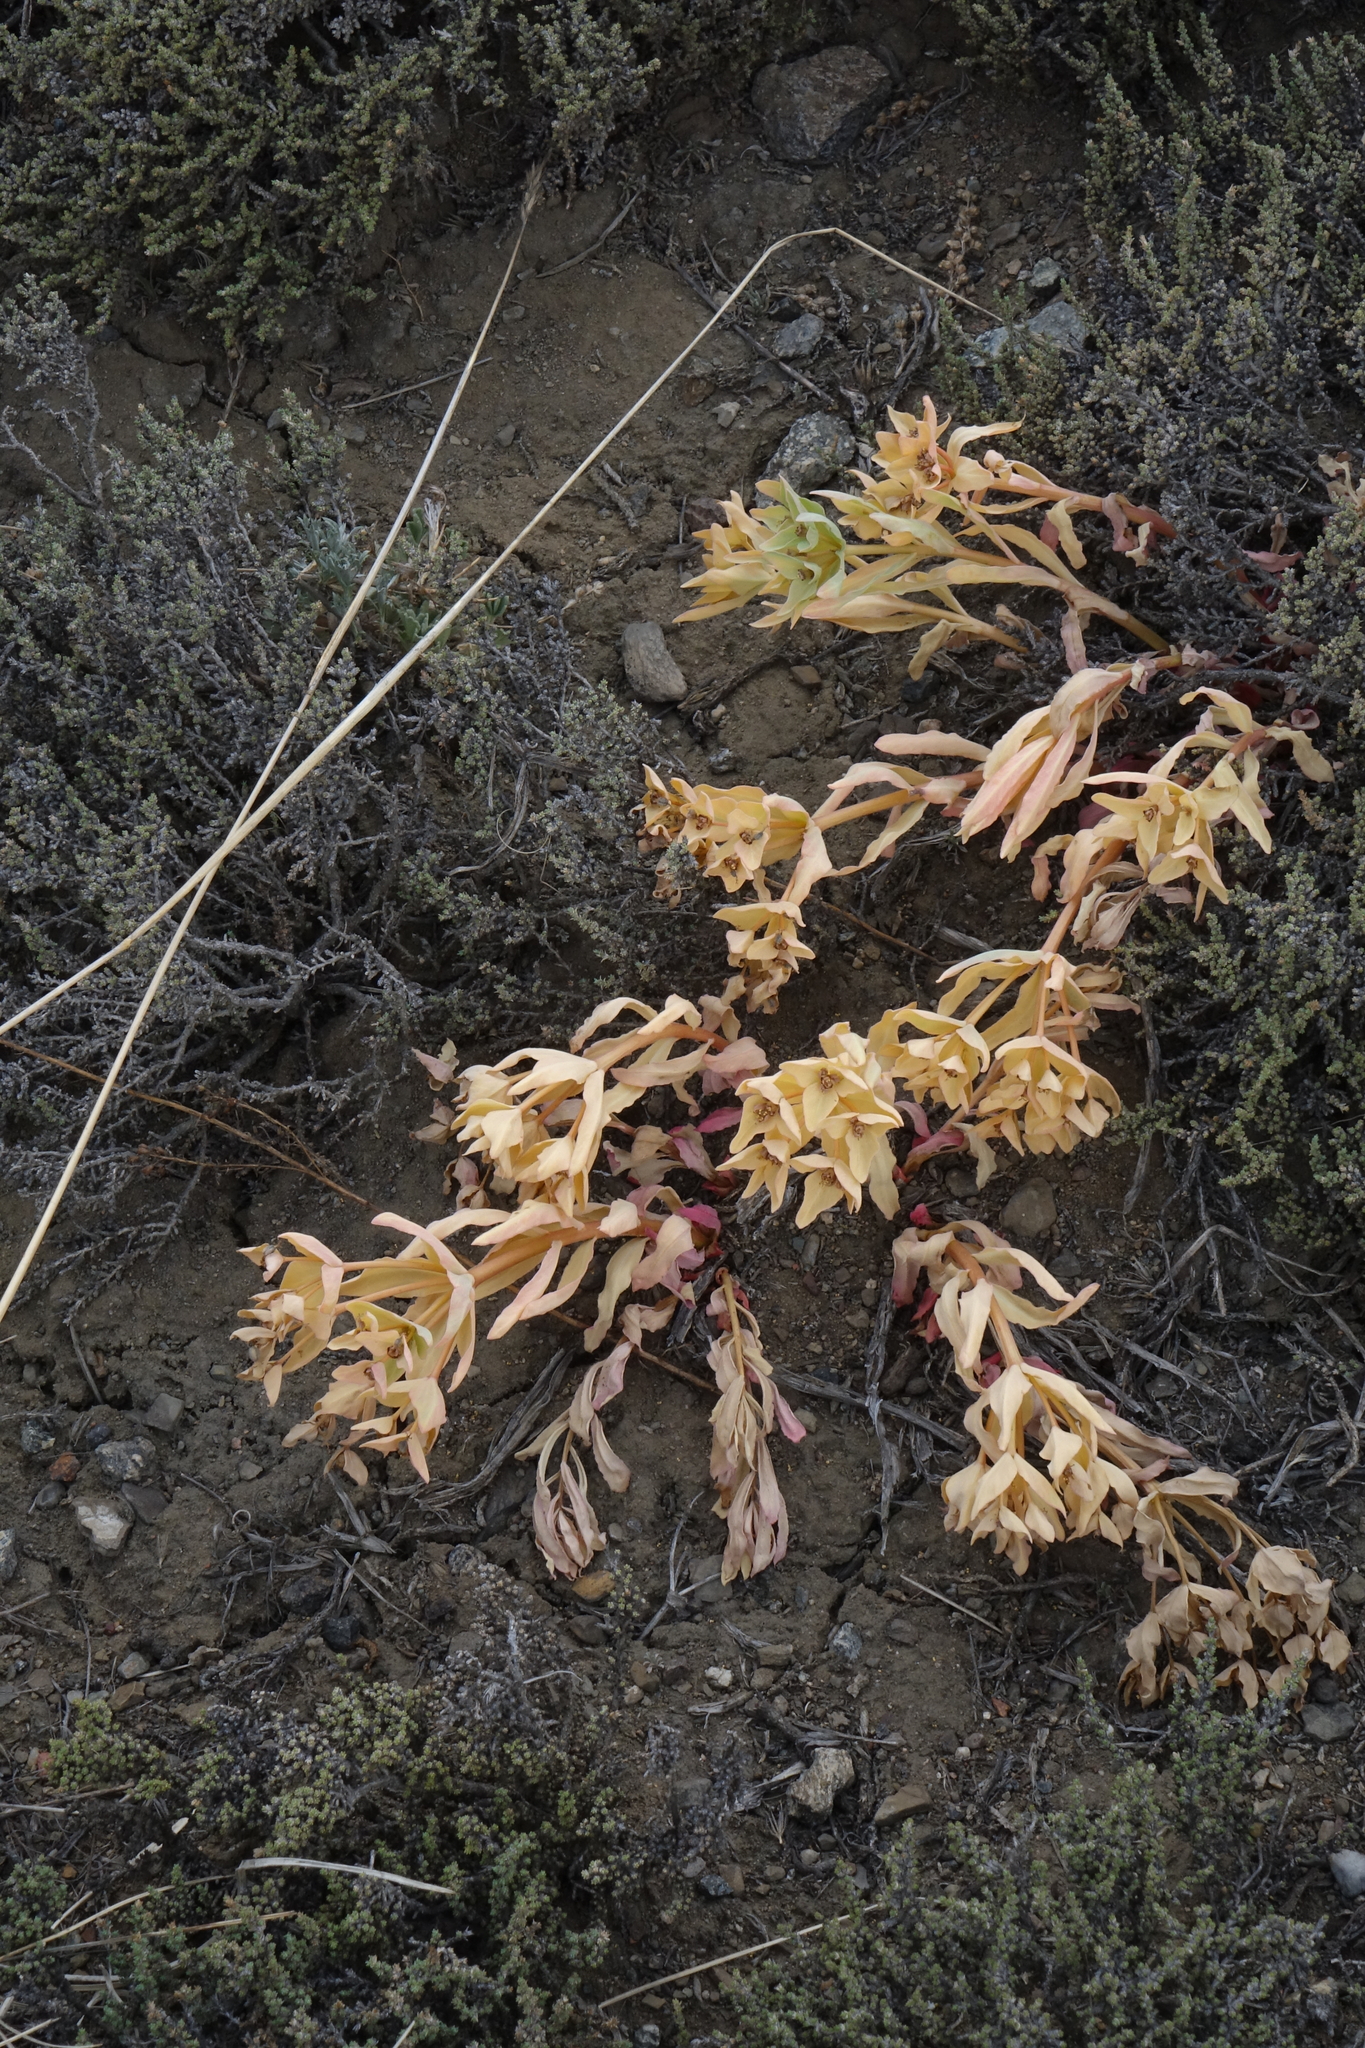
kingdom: Plantae
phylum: Tracheophyta
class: Magnoliopsida
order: Malpighiales
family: Euphorbiaceae
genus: Euphorbia
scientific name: Euphorbia mongolica
